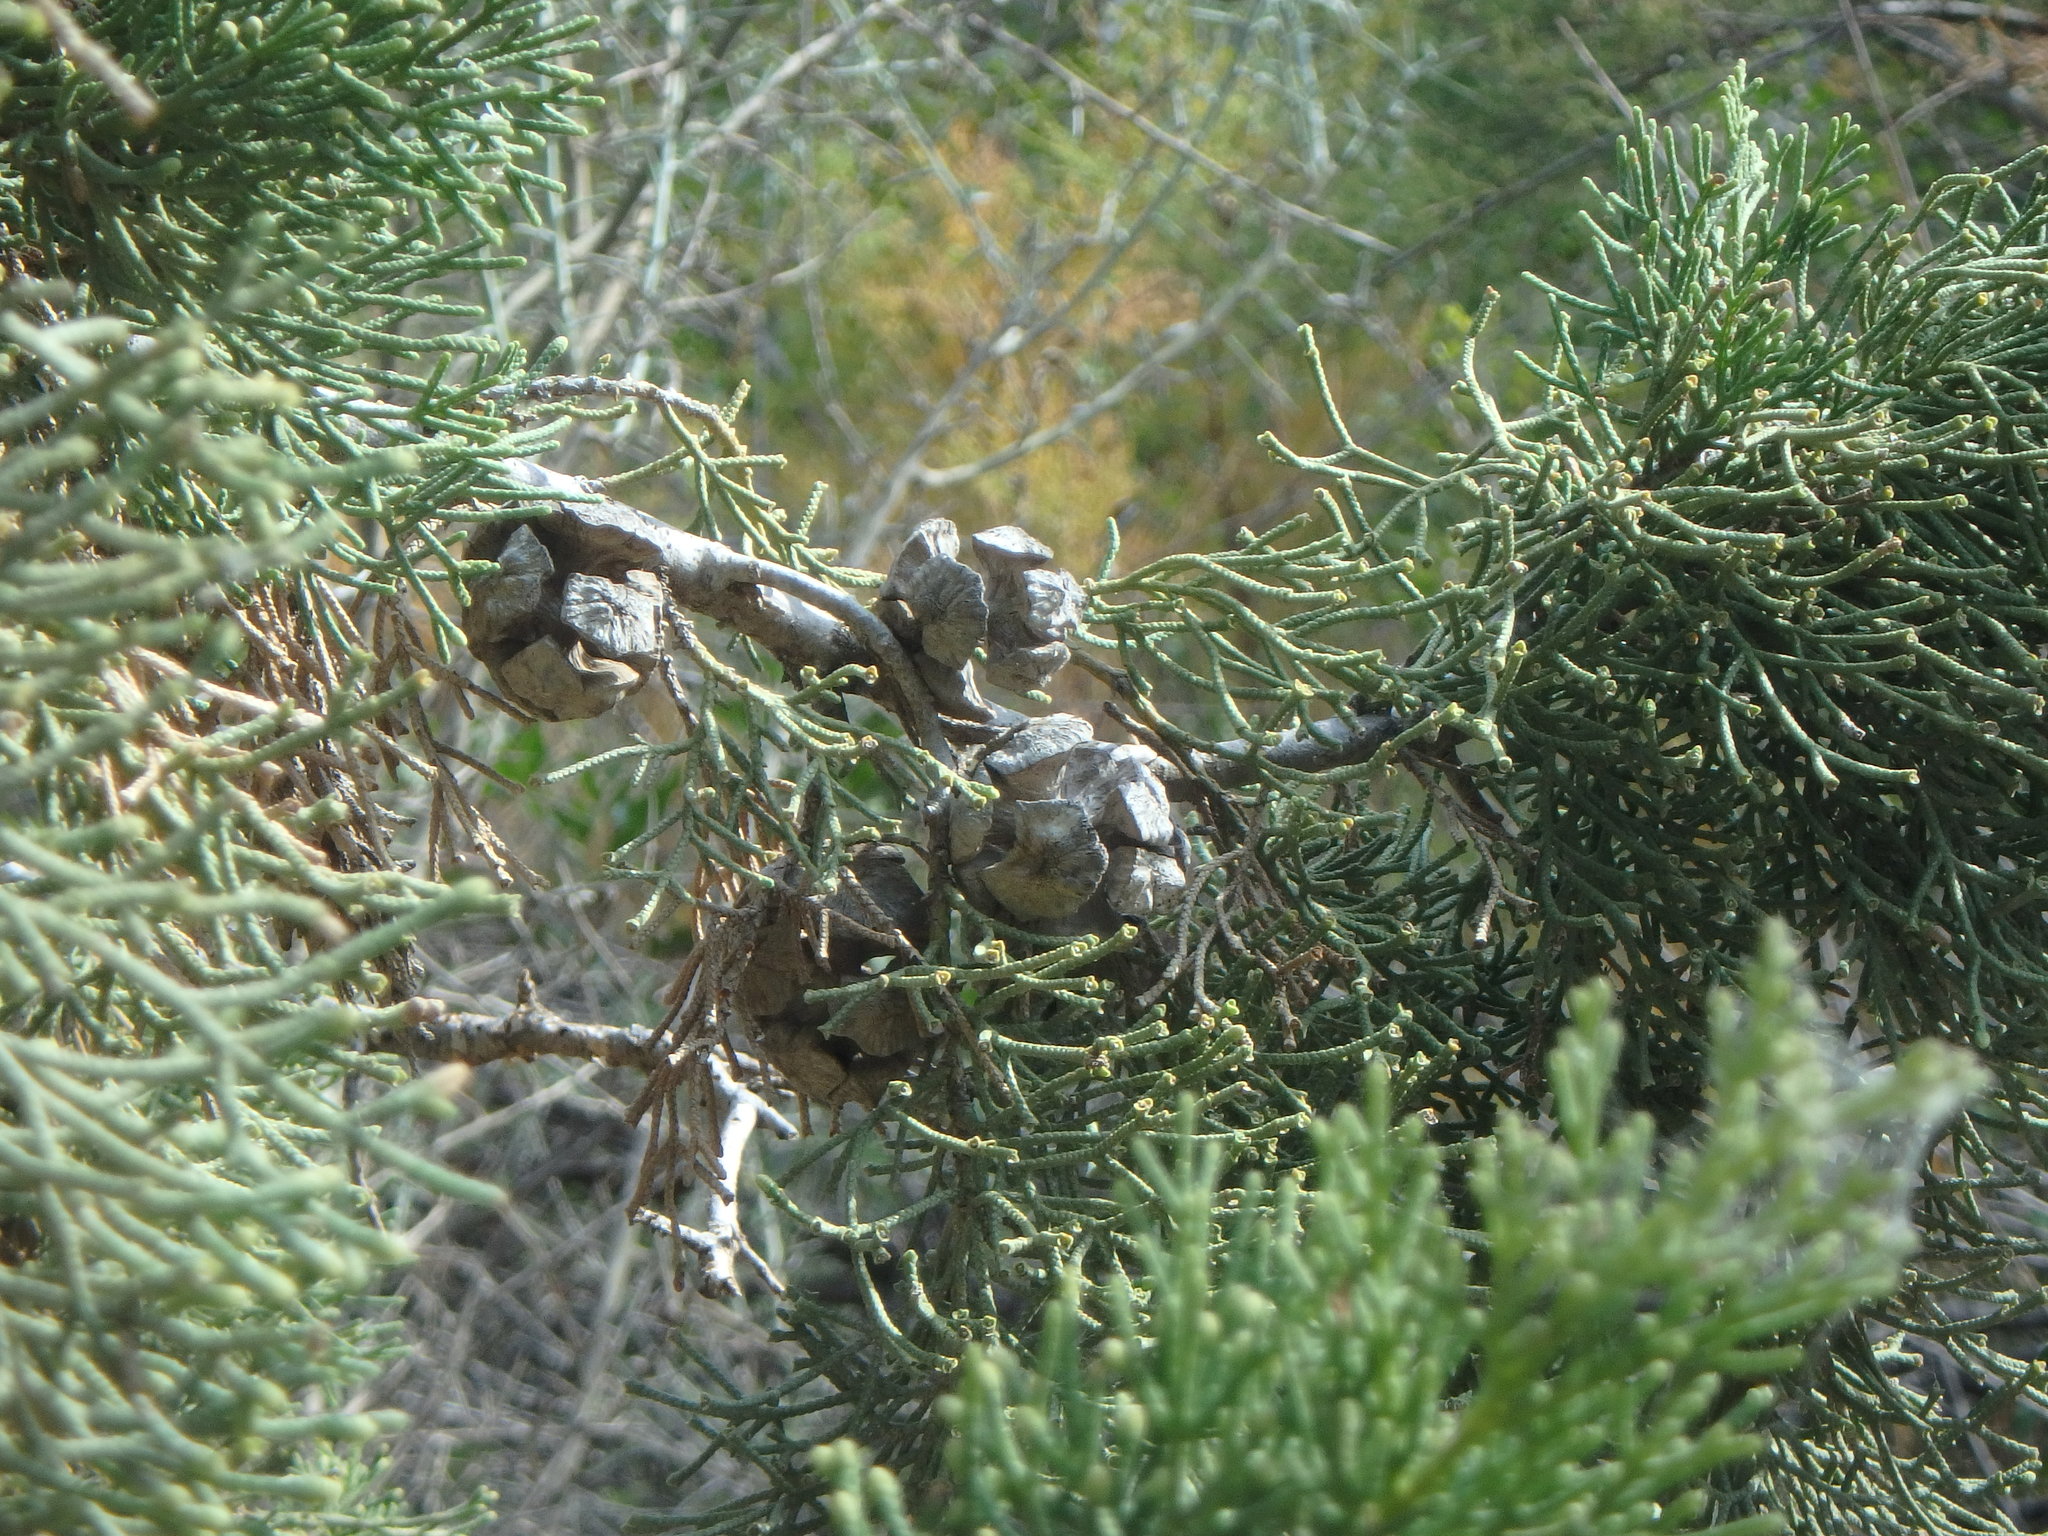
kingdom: Plantae
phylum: Tracheophyta
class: Pinopsida
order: Pinales
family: Cupressaceae
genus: Cupressus
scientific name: Cupressus sempervirens
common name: Italian cypress
